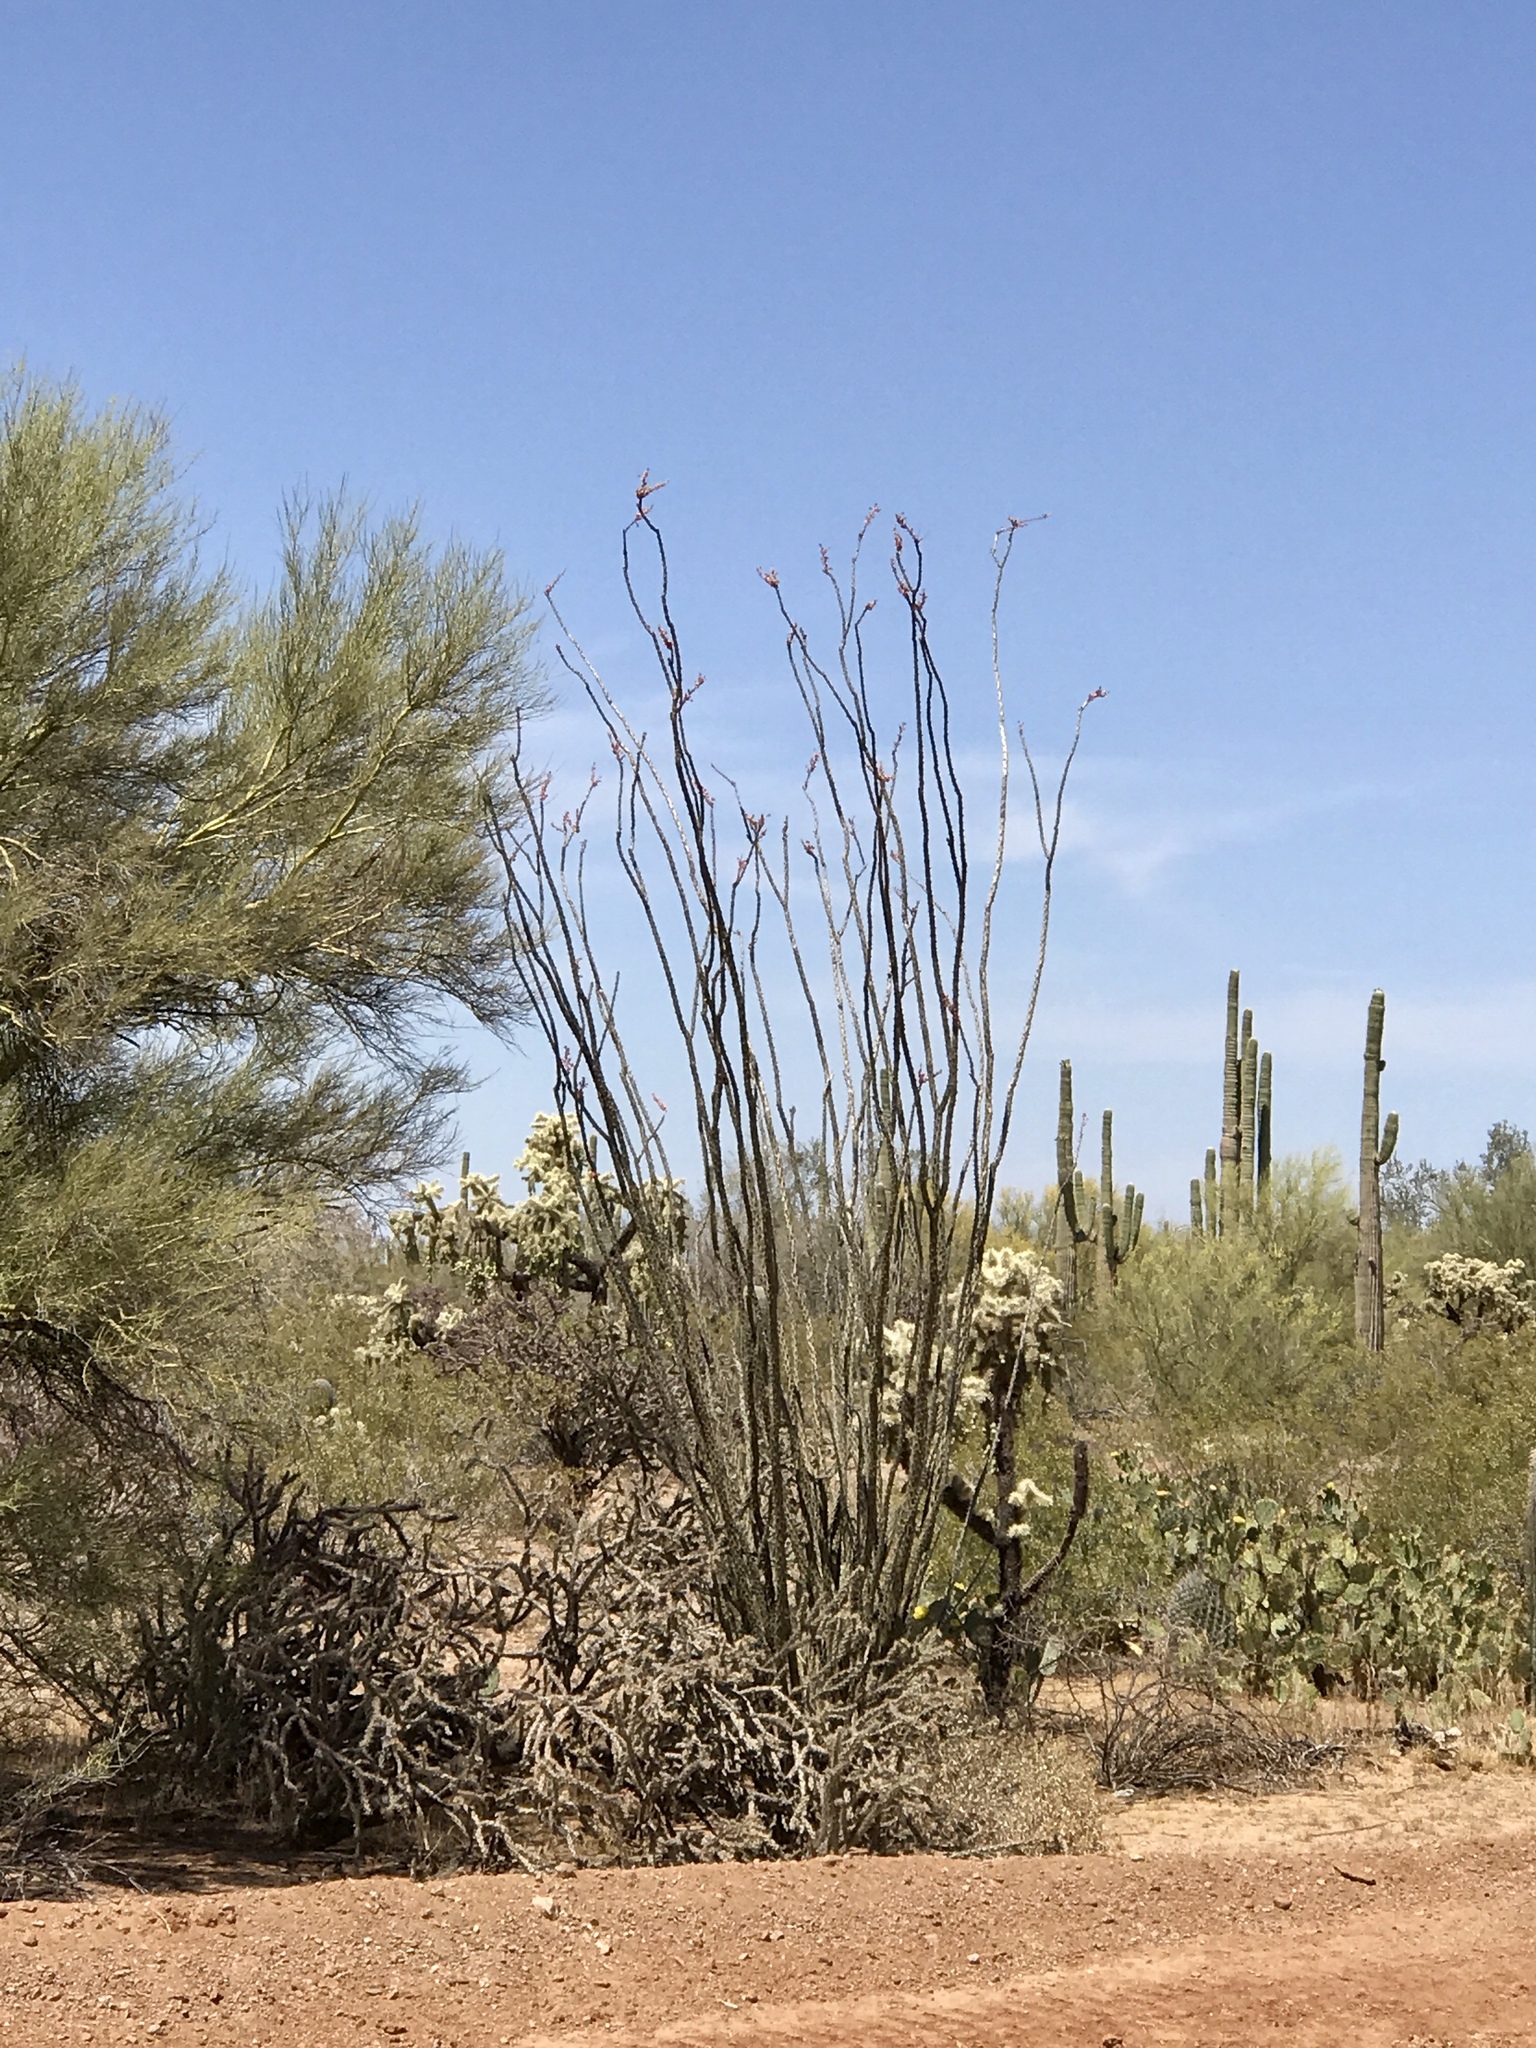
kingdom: Plantae
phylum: Tracheophyta
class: Magnoliopsida
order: Ericales
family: Fouquieriaceae
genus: Fouquieria
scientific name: Fouquieria splendens
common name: Vine-cactus
